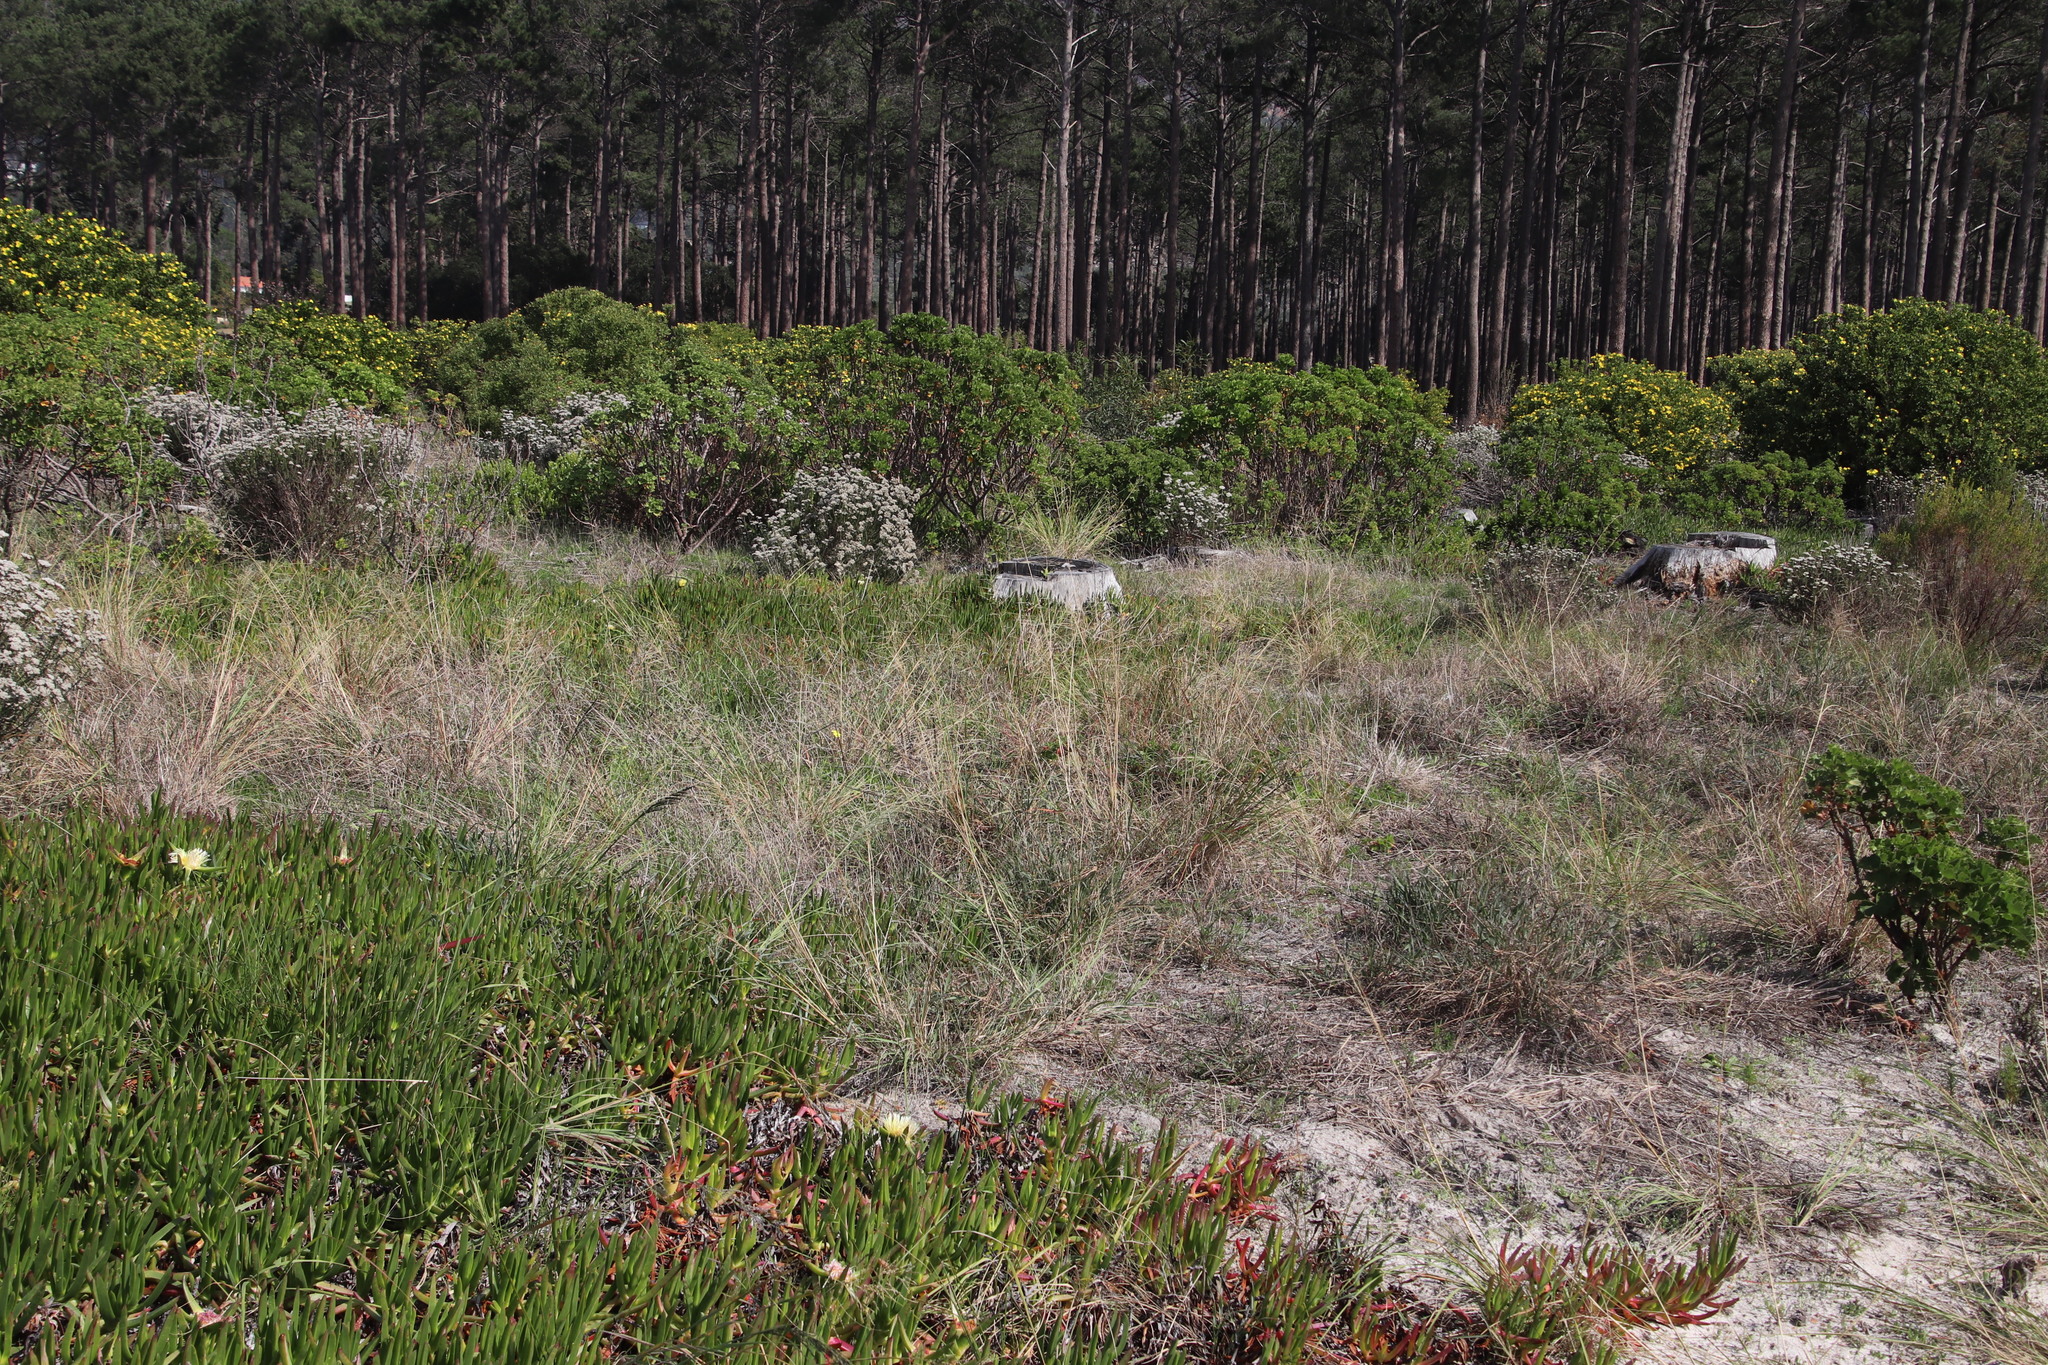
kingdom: Plantae
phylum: Tracheophyta
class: Liliopsida
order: Poales
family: Poaceae
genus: Eragrostis
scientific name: Eragrostis curvula
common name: African love-grass
